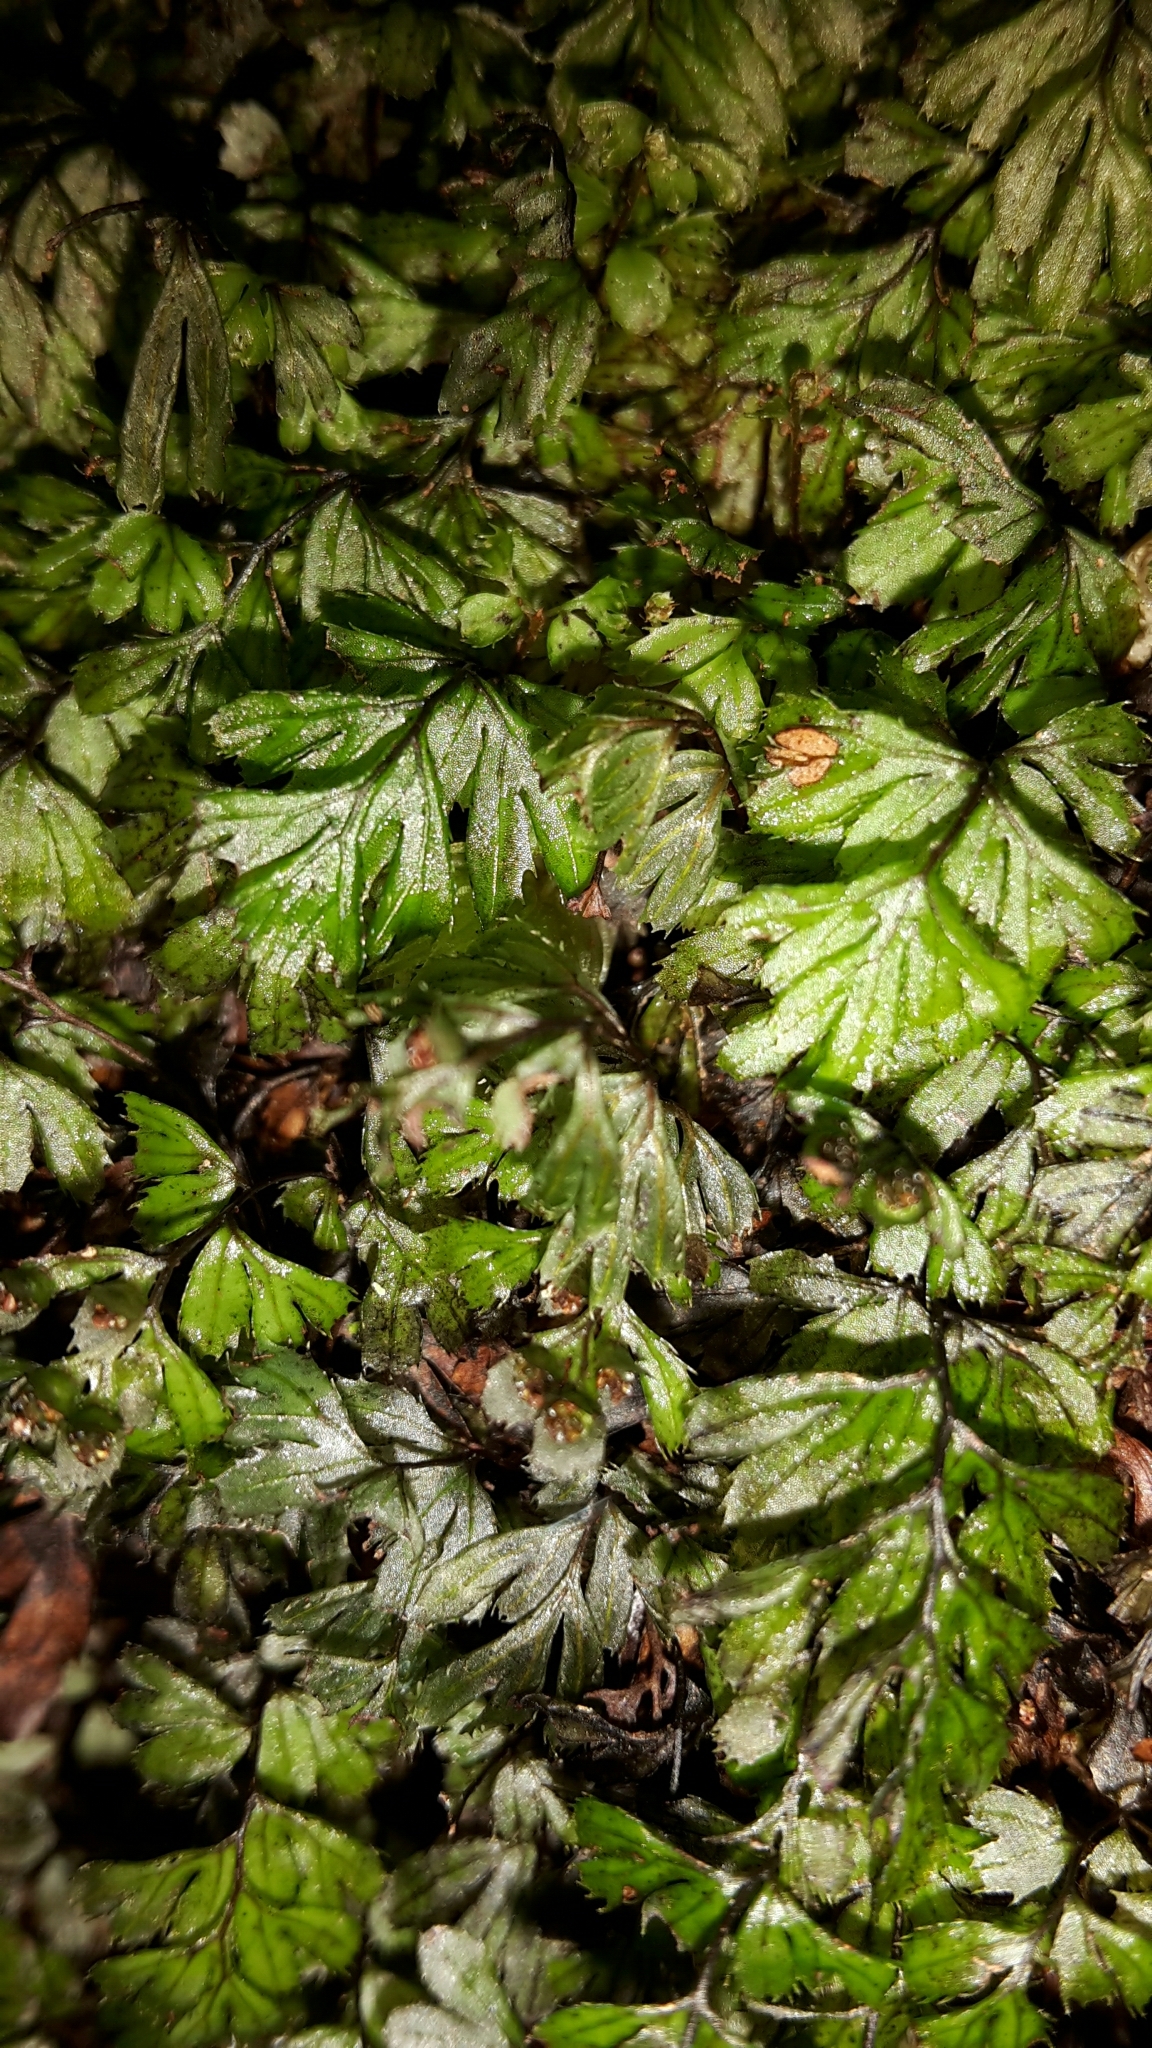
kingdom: Plantae
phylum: Tracheophyta
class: Polypodiopsida
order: Hymenophyllales
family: Hymenophyllaceae
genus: Hymenophyllum
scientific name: Hymenophyllum revolutum
